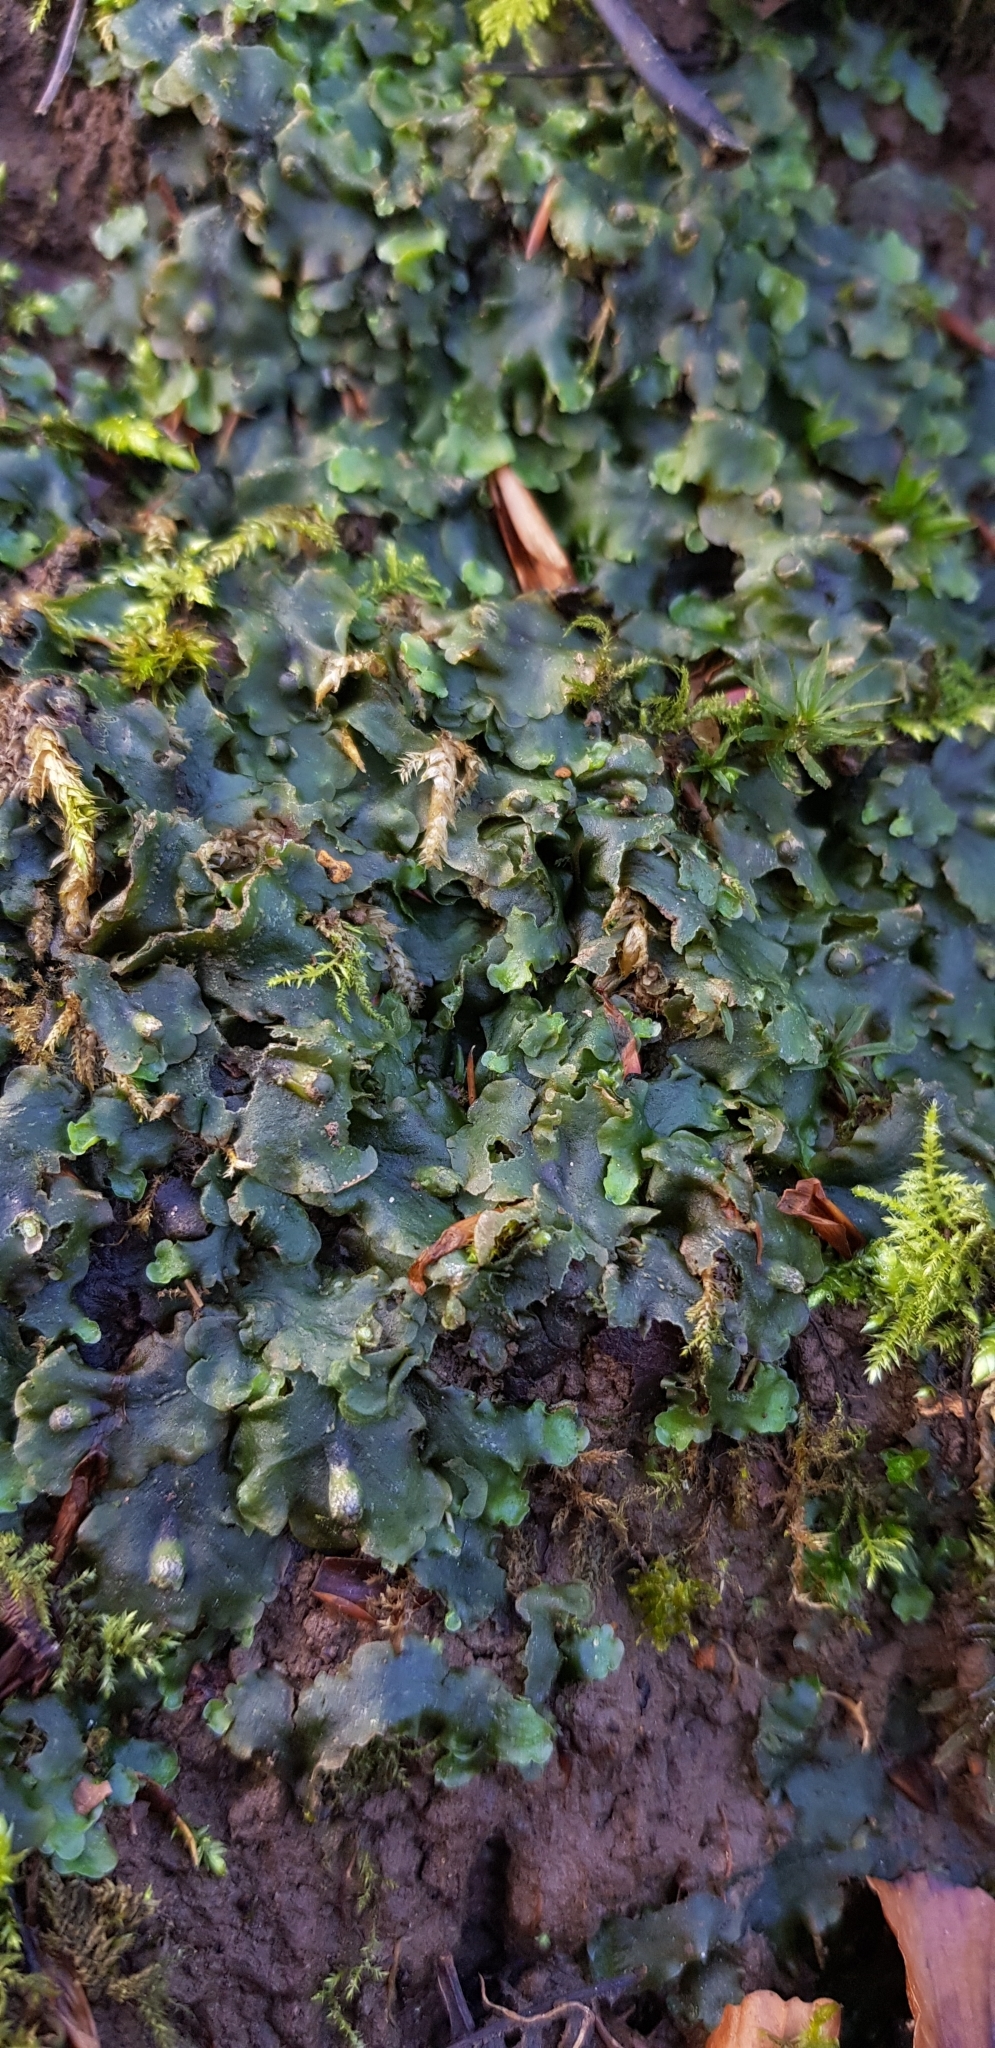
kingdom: Plantae
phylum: Marchantiophyta
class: Jungermanniopsida
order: Pelliales
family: Pelliaceae
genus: Pellia
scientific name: Pellia epiphylla
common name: Common pellia
